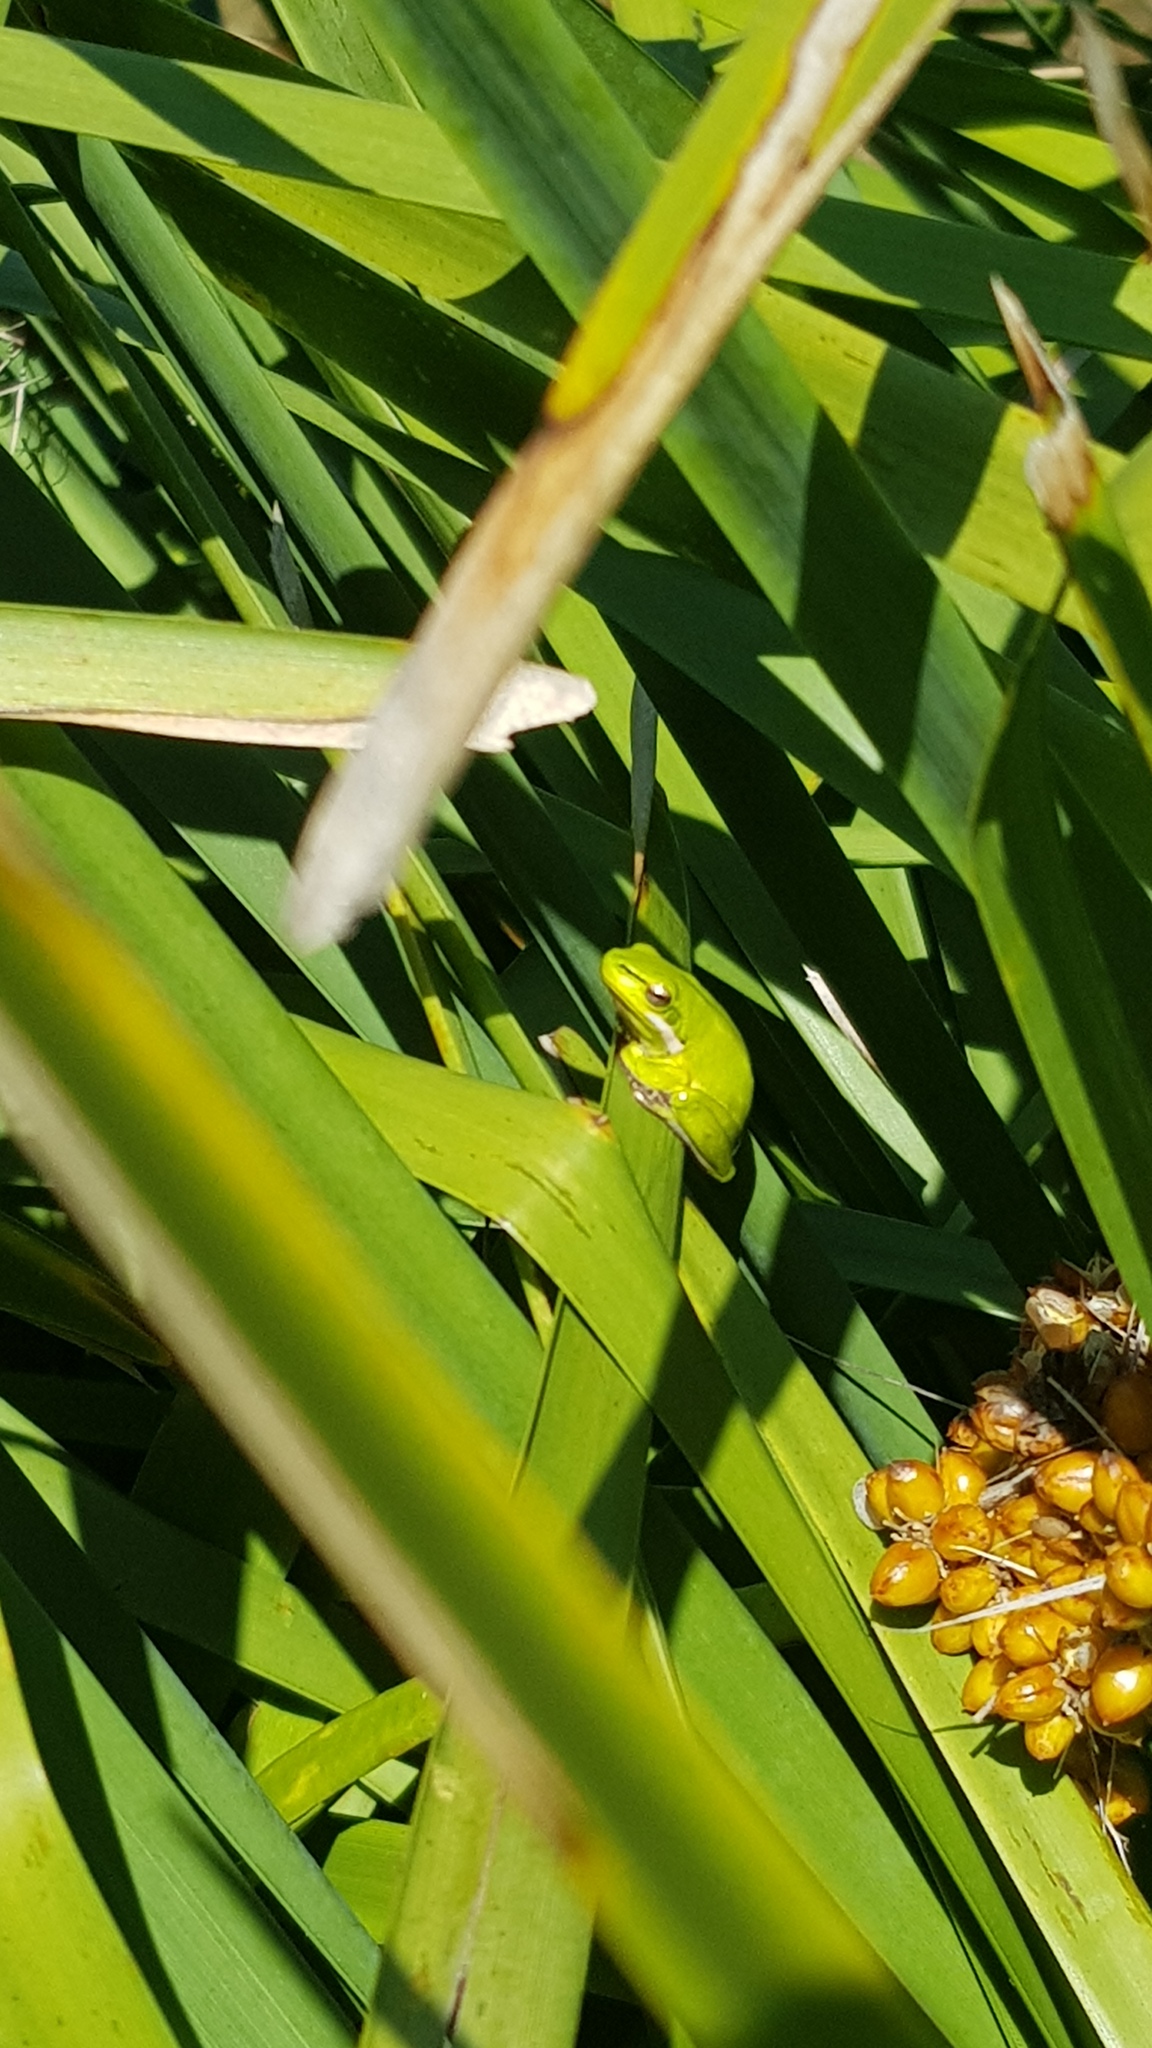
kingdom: Animalia
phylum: Chordata
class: Amphibia
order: Anura
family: Pelodryadidae
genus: Litoria
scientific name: Litoria fallax
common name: Eastern dwarf treefrog
